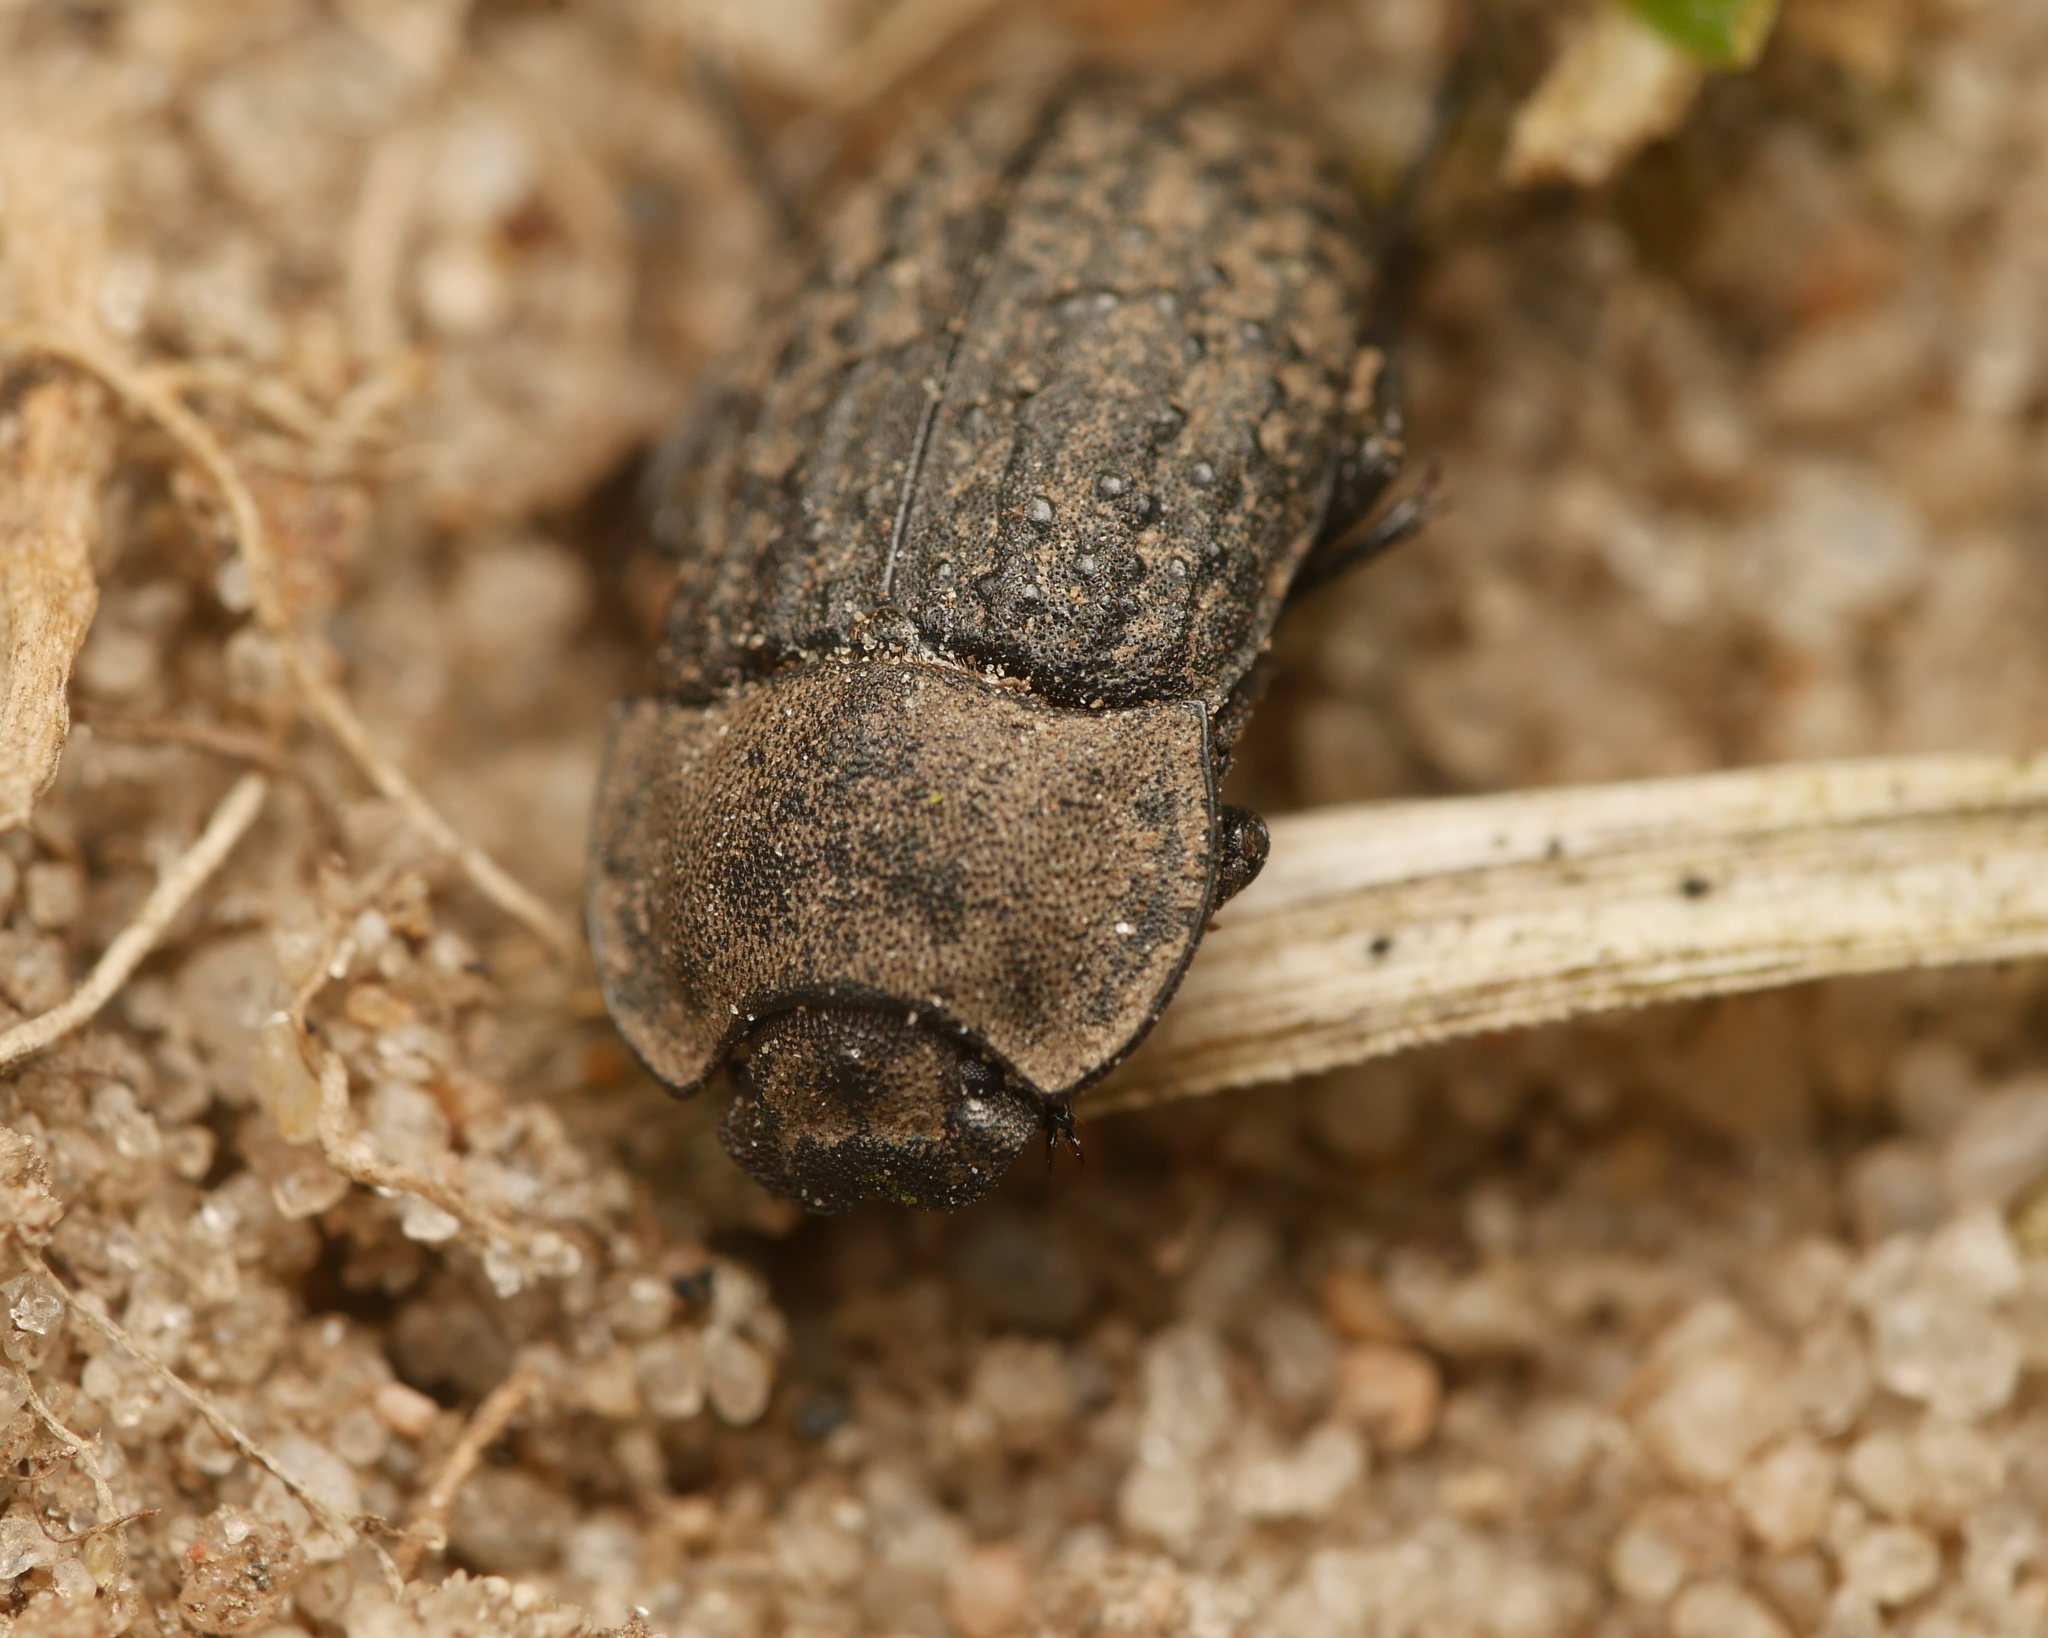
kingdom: Animalia
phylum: Arthropoda
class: Insecta
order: Coleoptera
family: Tenebrionidae
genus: Opatrum
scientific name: Opatrum sabulosum
